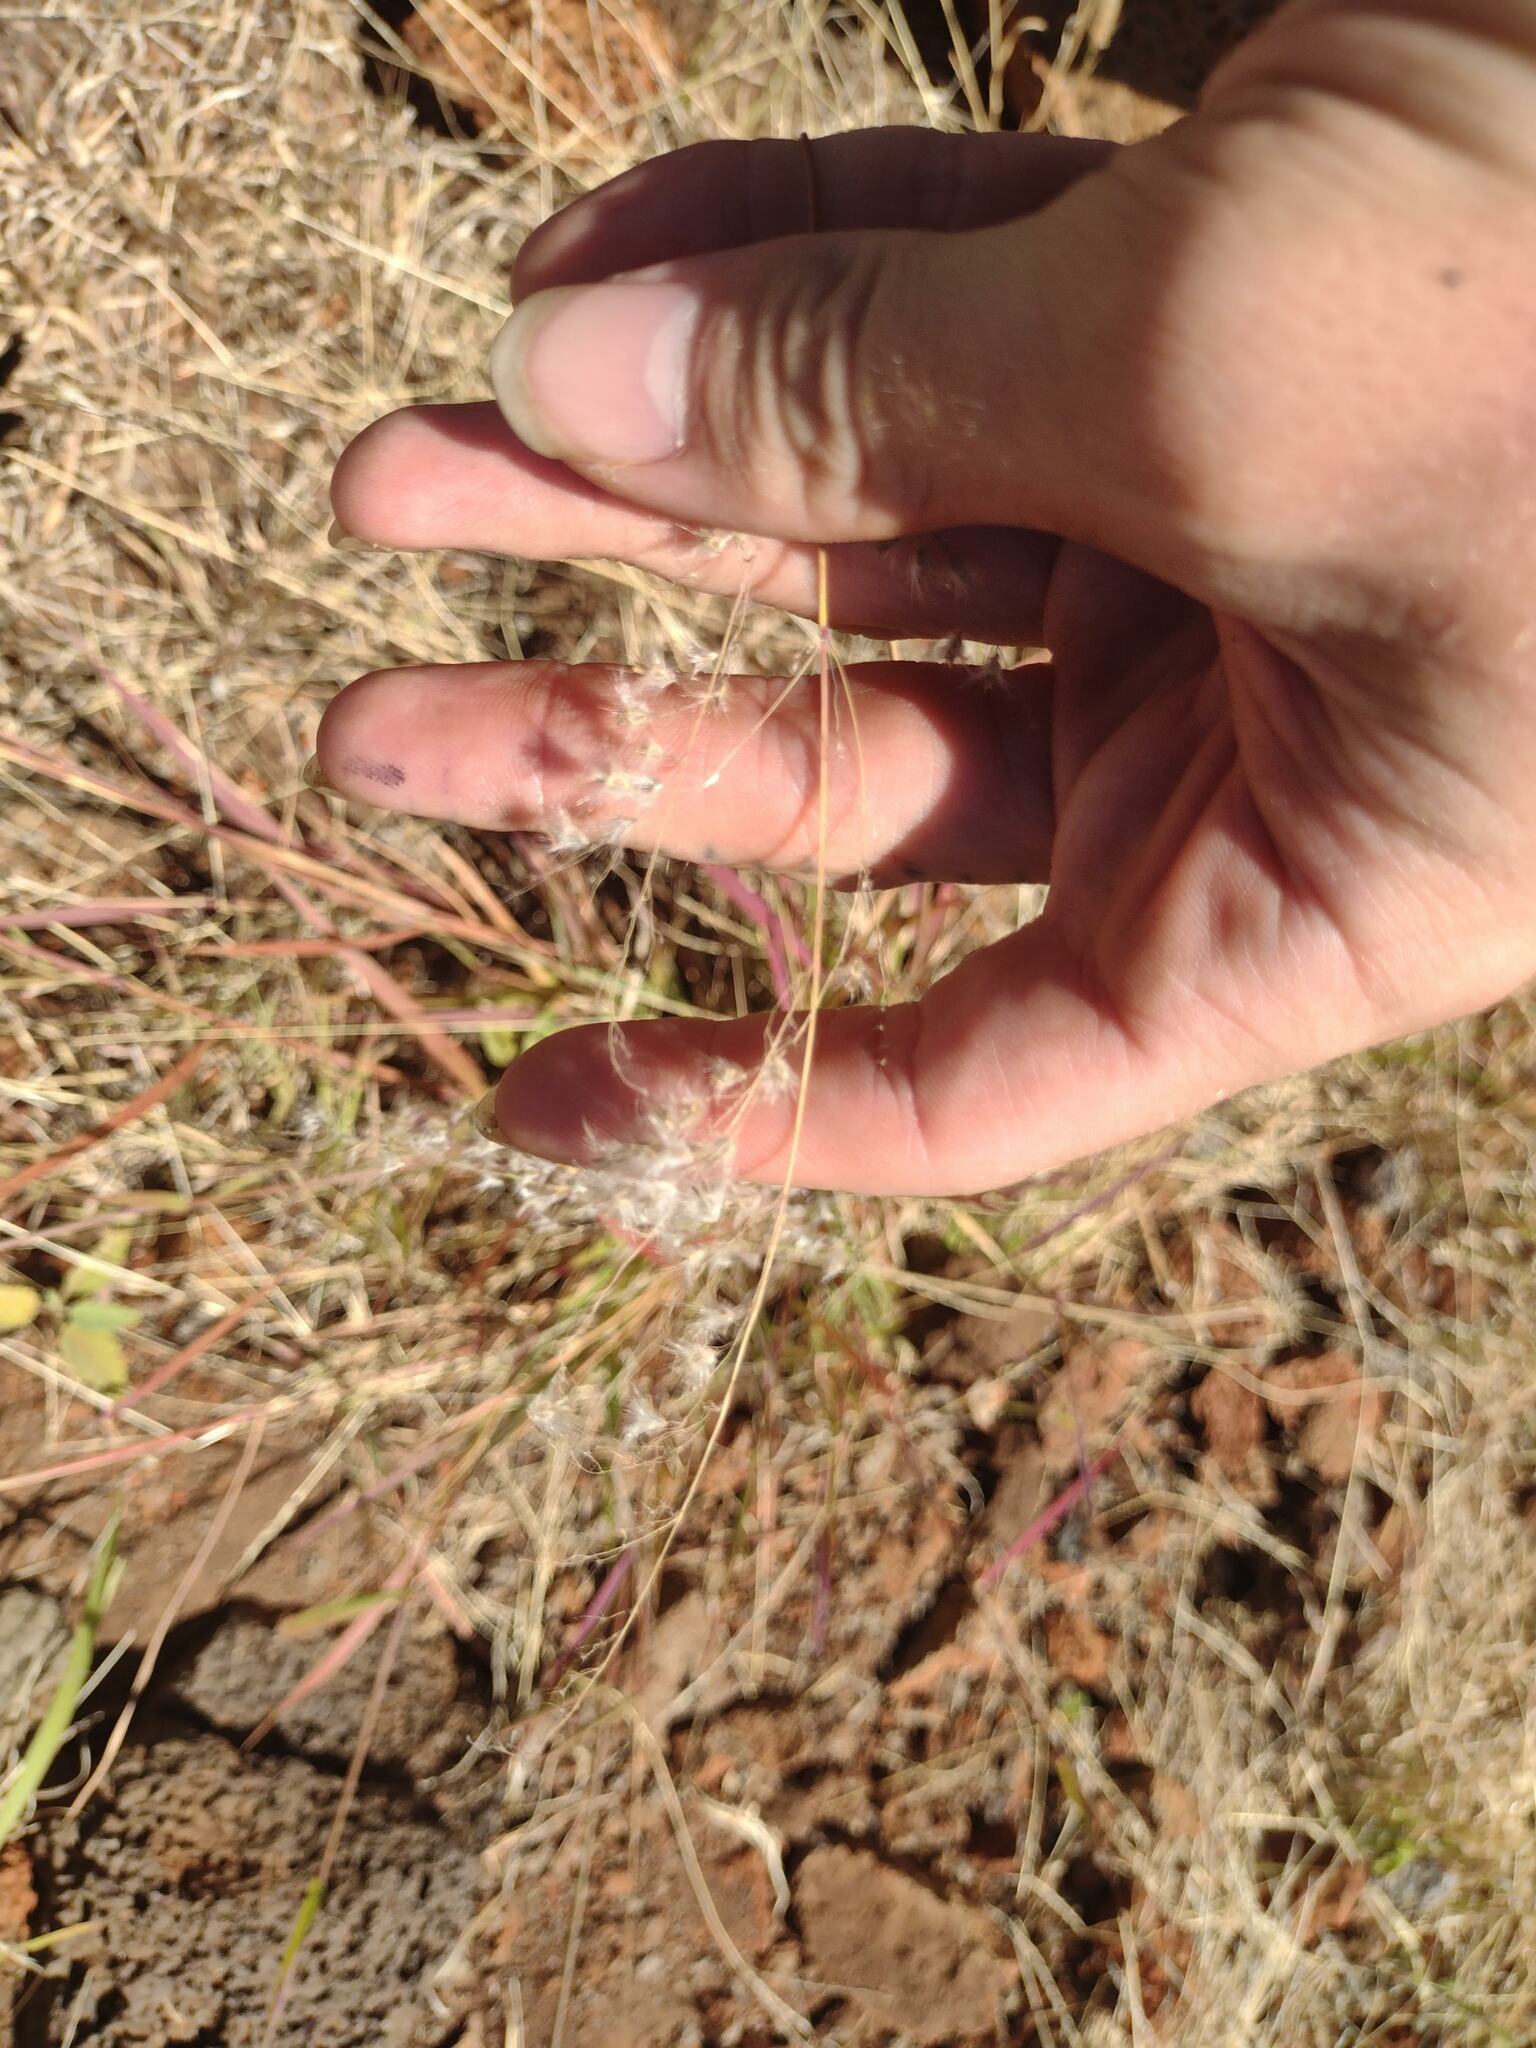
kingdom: Plantae
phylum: Tracheophyta
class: Liliopsida
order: Poales
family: Poaceae
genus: Melinis
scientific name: Melinis repens
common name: Rose natal grass
